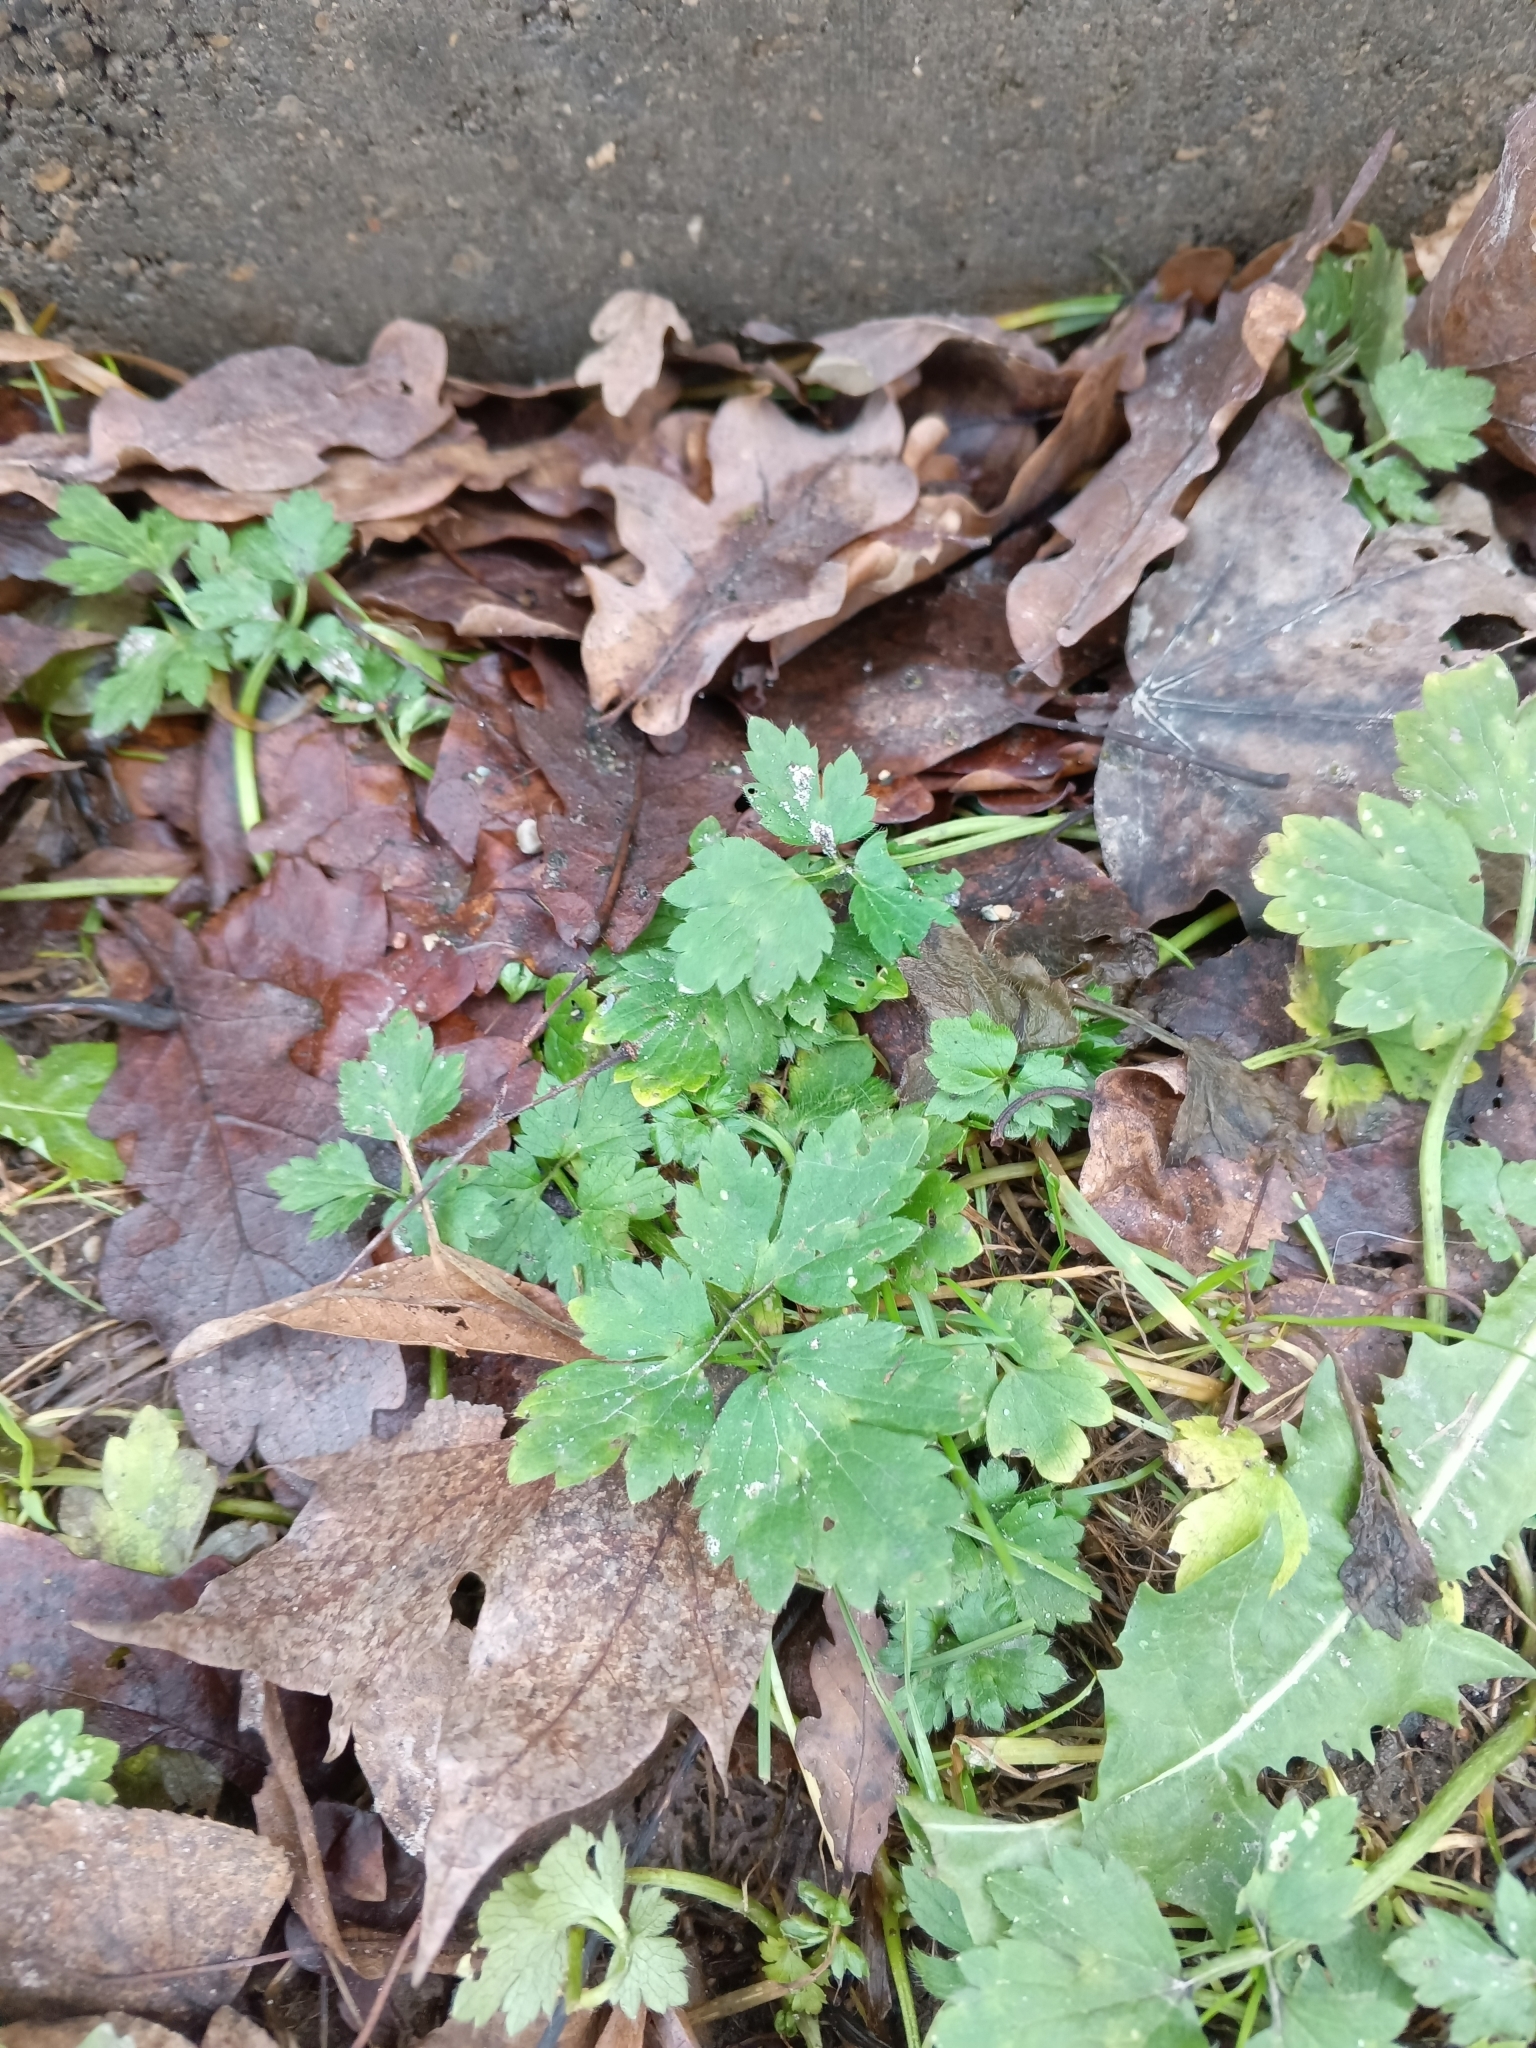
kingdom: Plantae
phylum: Tracheophyta
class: Magnoliopsida
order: Ranunculales
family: Ranunculaceae
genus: Ranunculus
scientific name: Ranunculus repens
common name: Creeping buttercup
